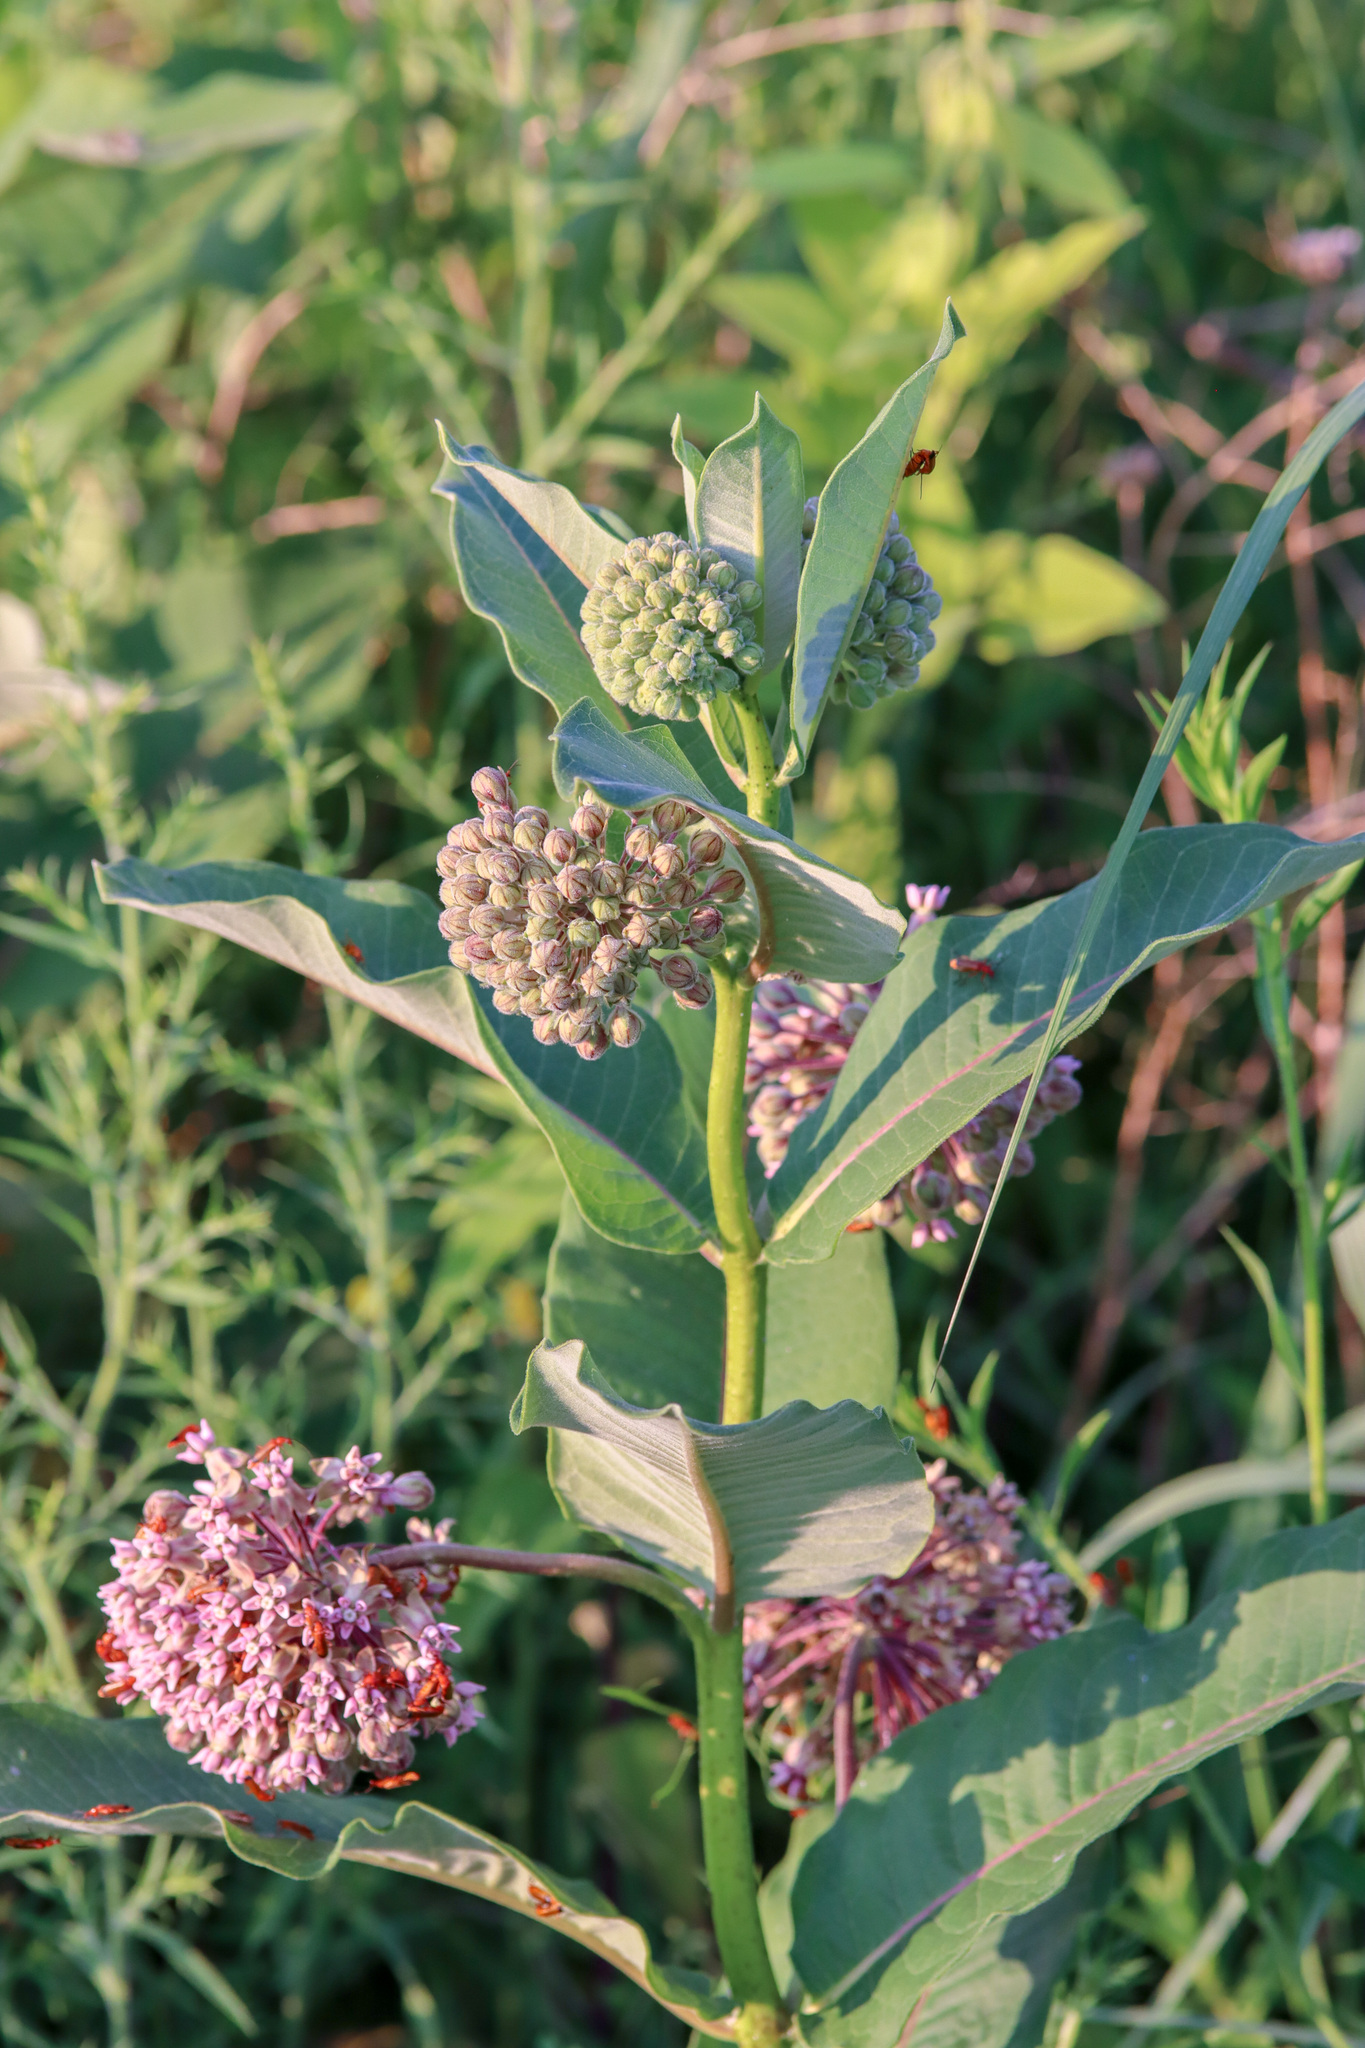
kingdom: Plantae
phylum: Tracheophyta
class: Magnoliopsida
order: Gentianales
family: Apocynaceae
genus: Asclepias
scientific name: Asclepias syriaca
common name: Common milkweed
